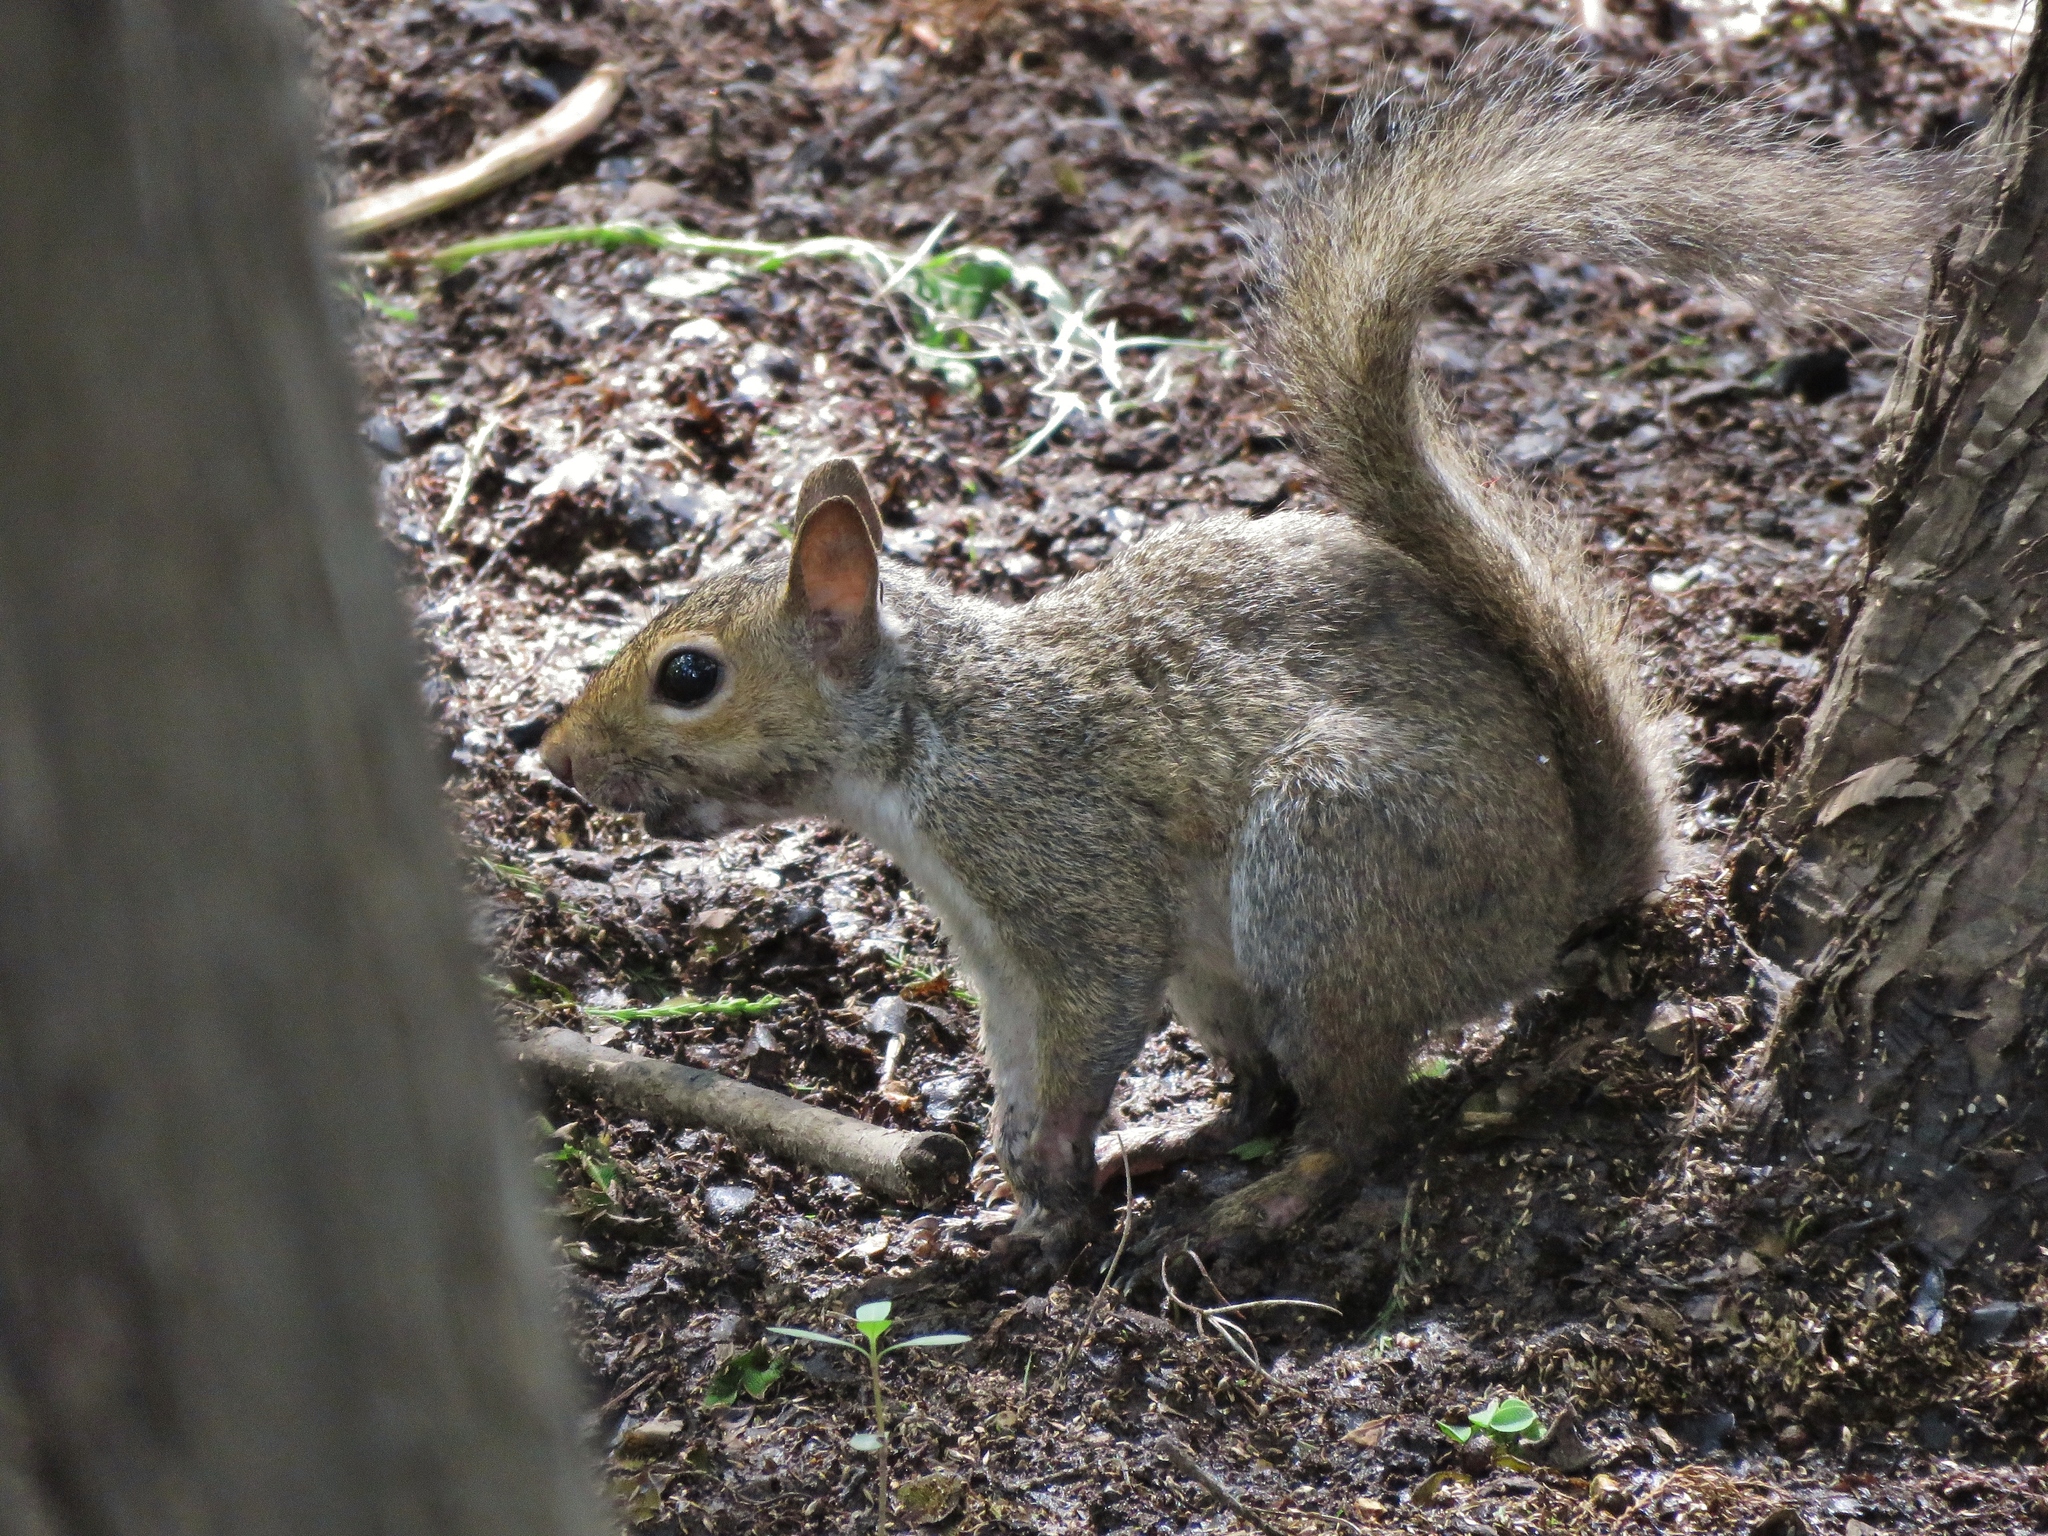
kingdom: Animalia
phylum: Chordata
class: Mammalia
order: Rodentia
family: Sciuridae
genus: Sciurus
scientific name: Sciurus carolinensis
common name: Eastern gray squirrel
